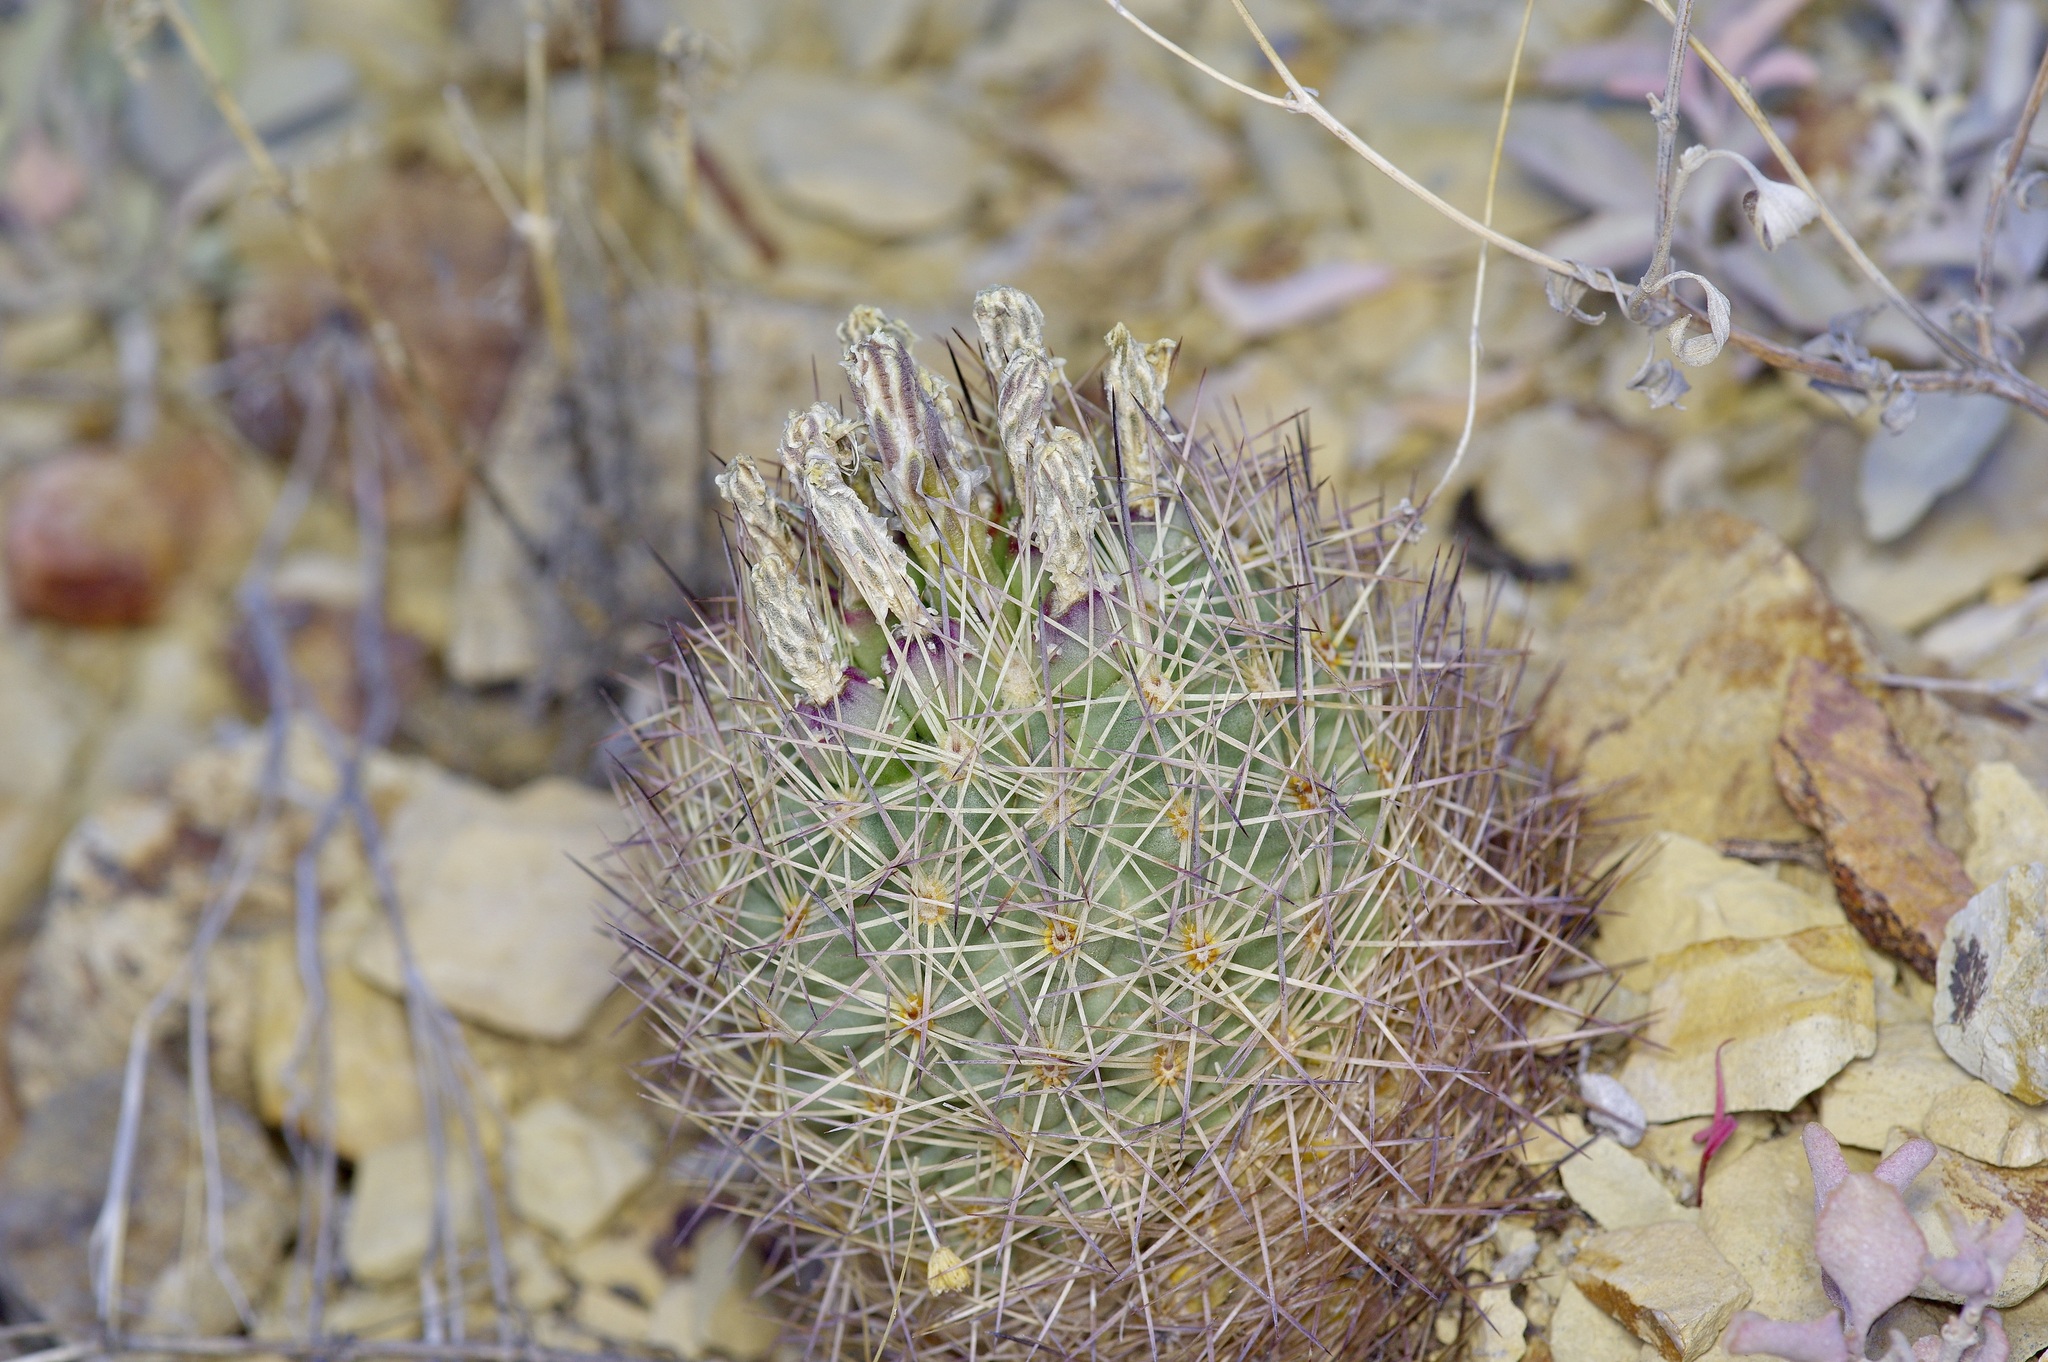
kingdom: Plantae
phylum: Tracheophyta
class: Magnoliopsida
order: Caryophyllales
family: Cactaceae
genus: Sclerocactus
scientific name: Sclerocactus warnockii
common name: Pineapple cactus
